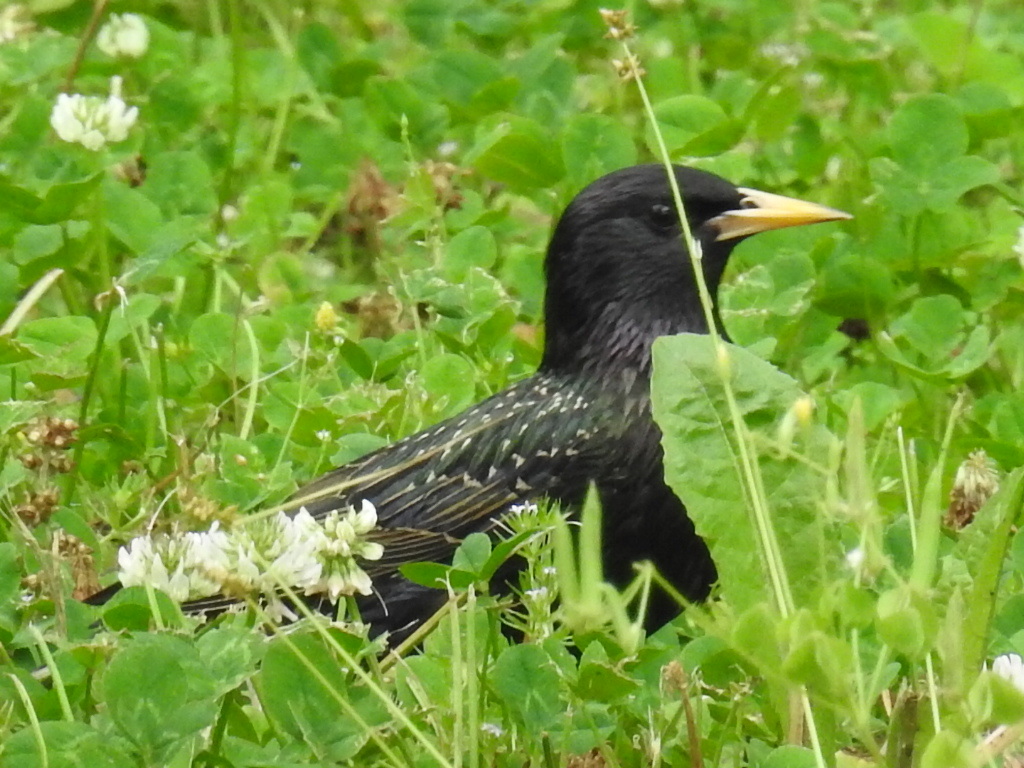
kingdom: Animalia
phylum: Chordata
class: Aves
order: Passeriformes
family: Sturnidae
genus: Sturnus
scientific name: Sturnus vulgaris
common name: Common starling
